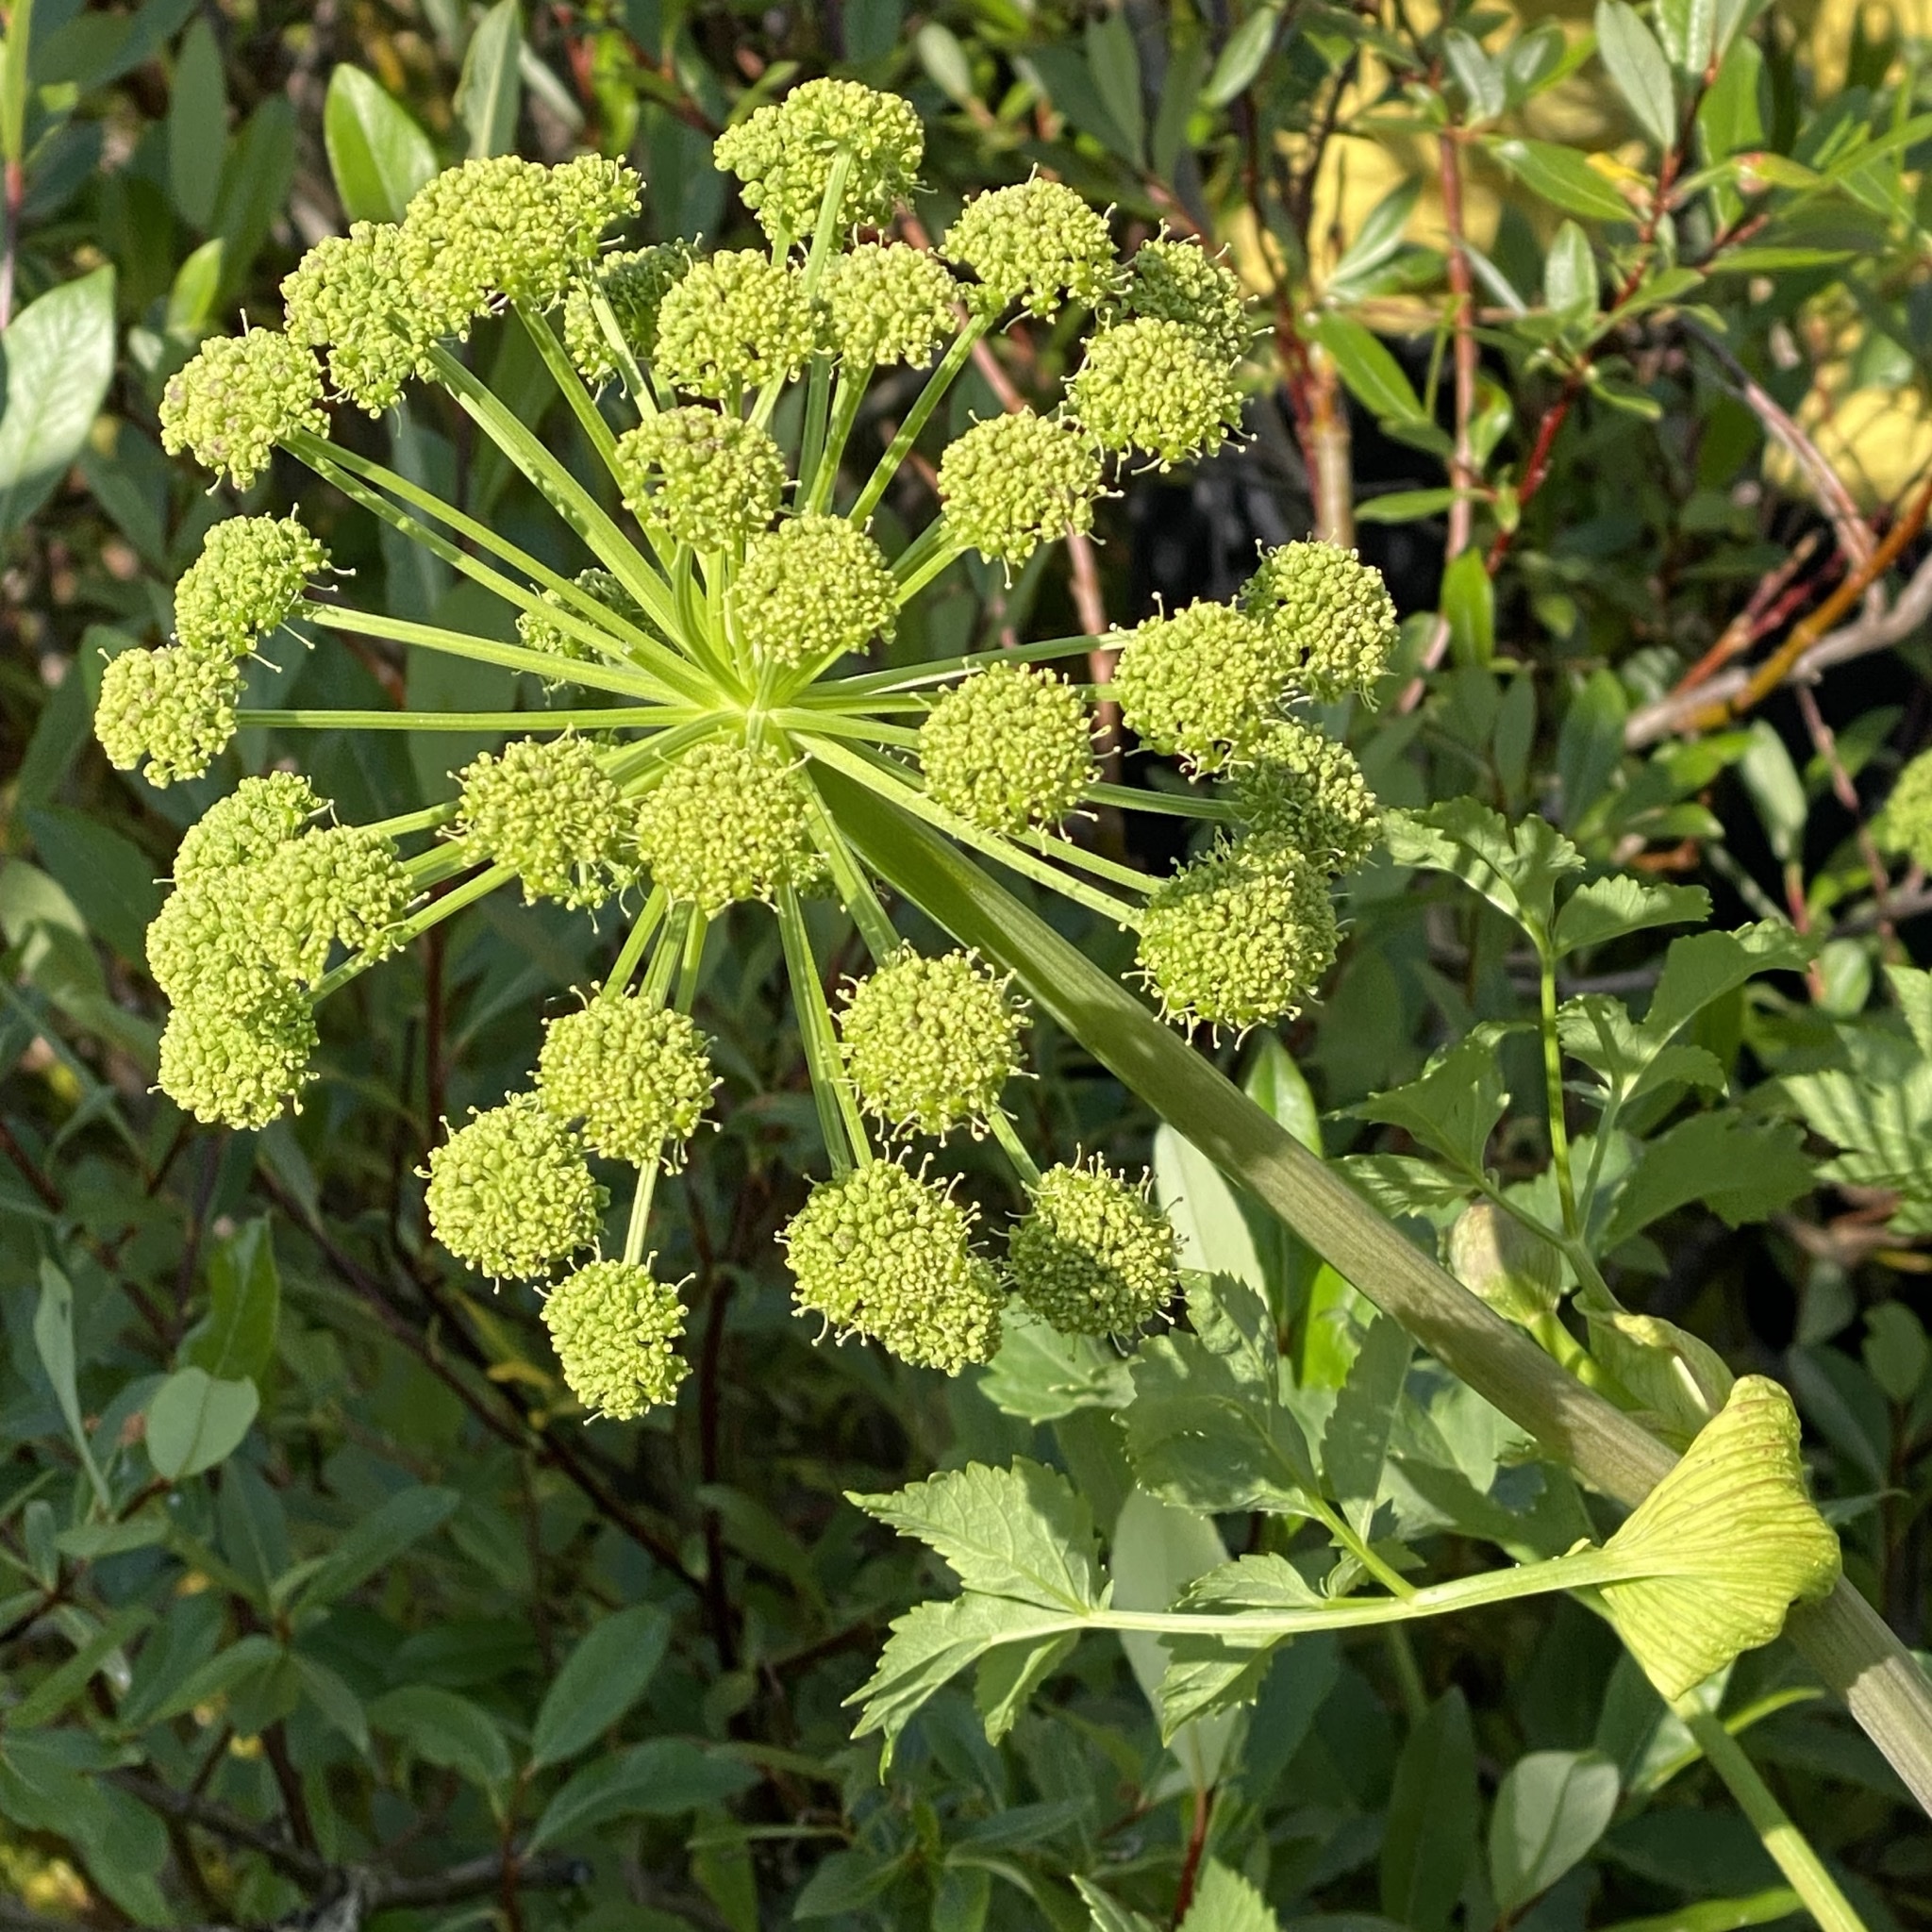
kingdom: Plantae
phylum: Tracheophyta
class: Magnoliopsida
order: Apiales
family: Apiaceae
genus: Angelica
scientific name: Angelica archangelica
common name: Garden angelica
